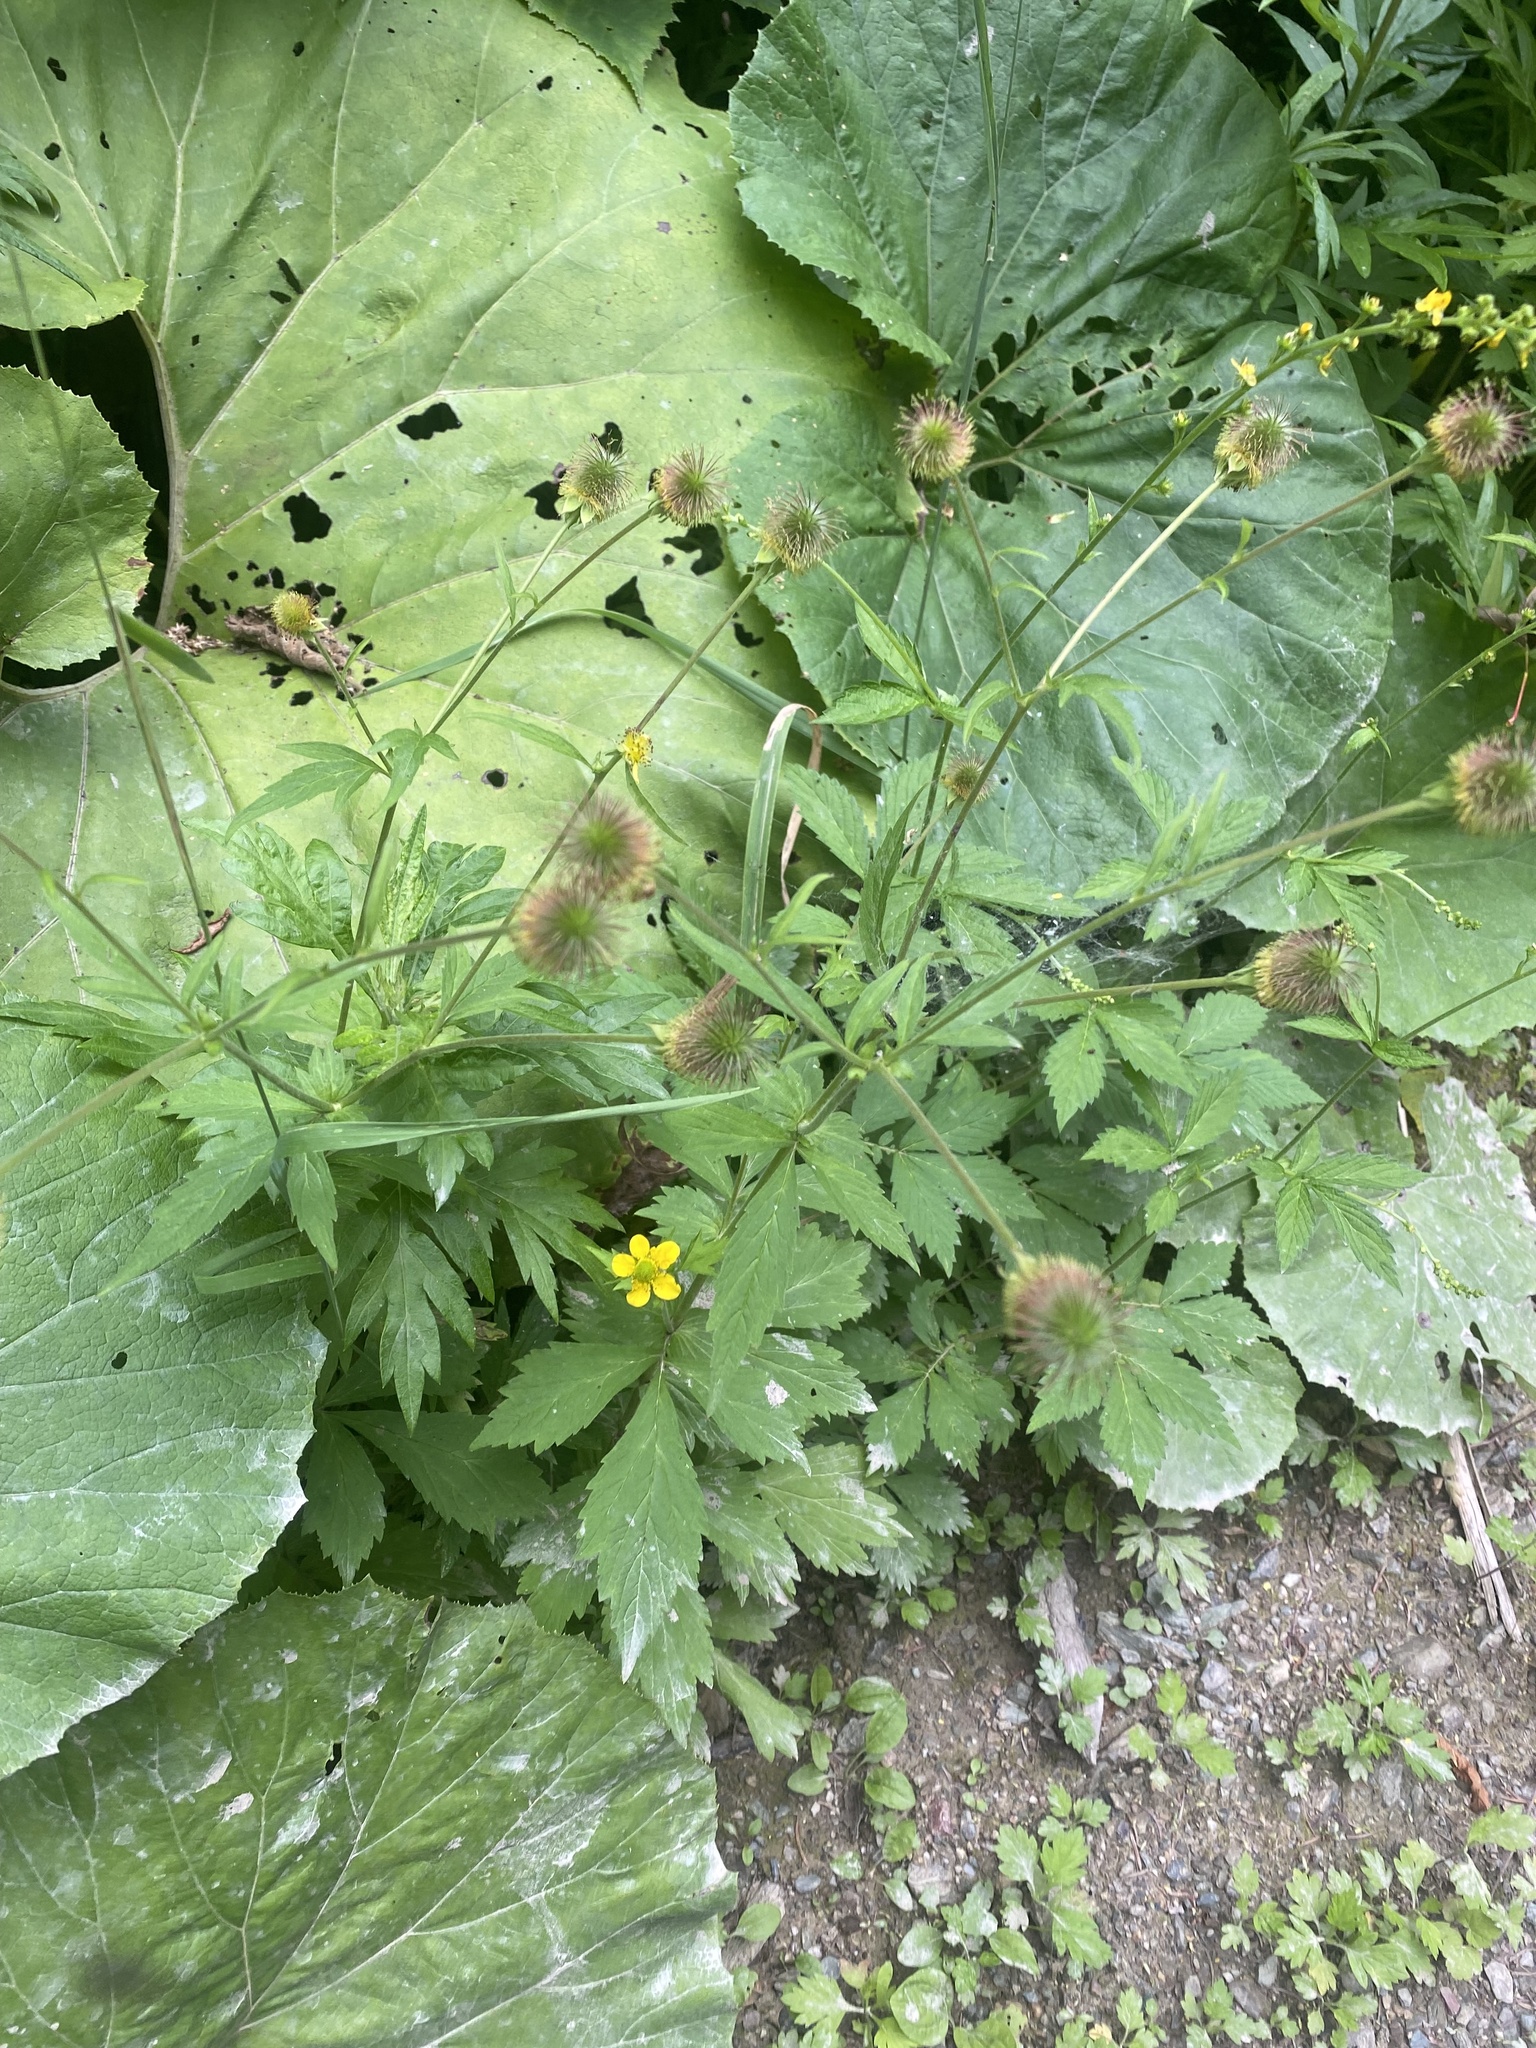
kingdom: Plantae
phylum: Tracheophyta
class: Magnoliopsida
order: Rosales
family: Rosaceae
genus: Geum
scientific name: Geum aleppicum
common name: Yellow avens
